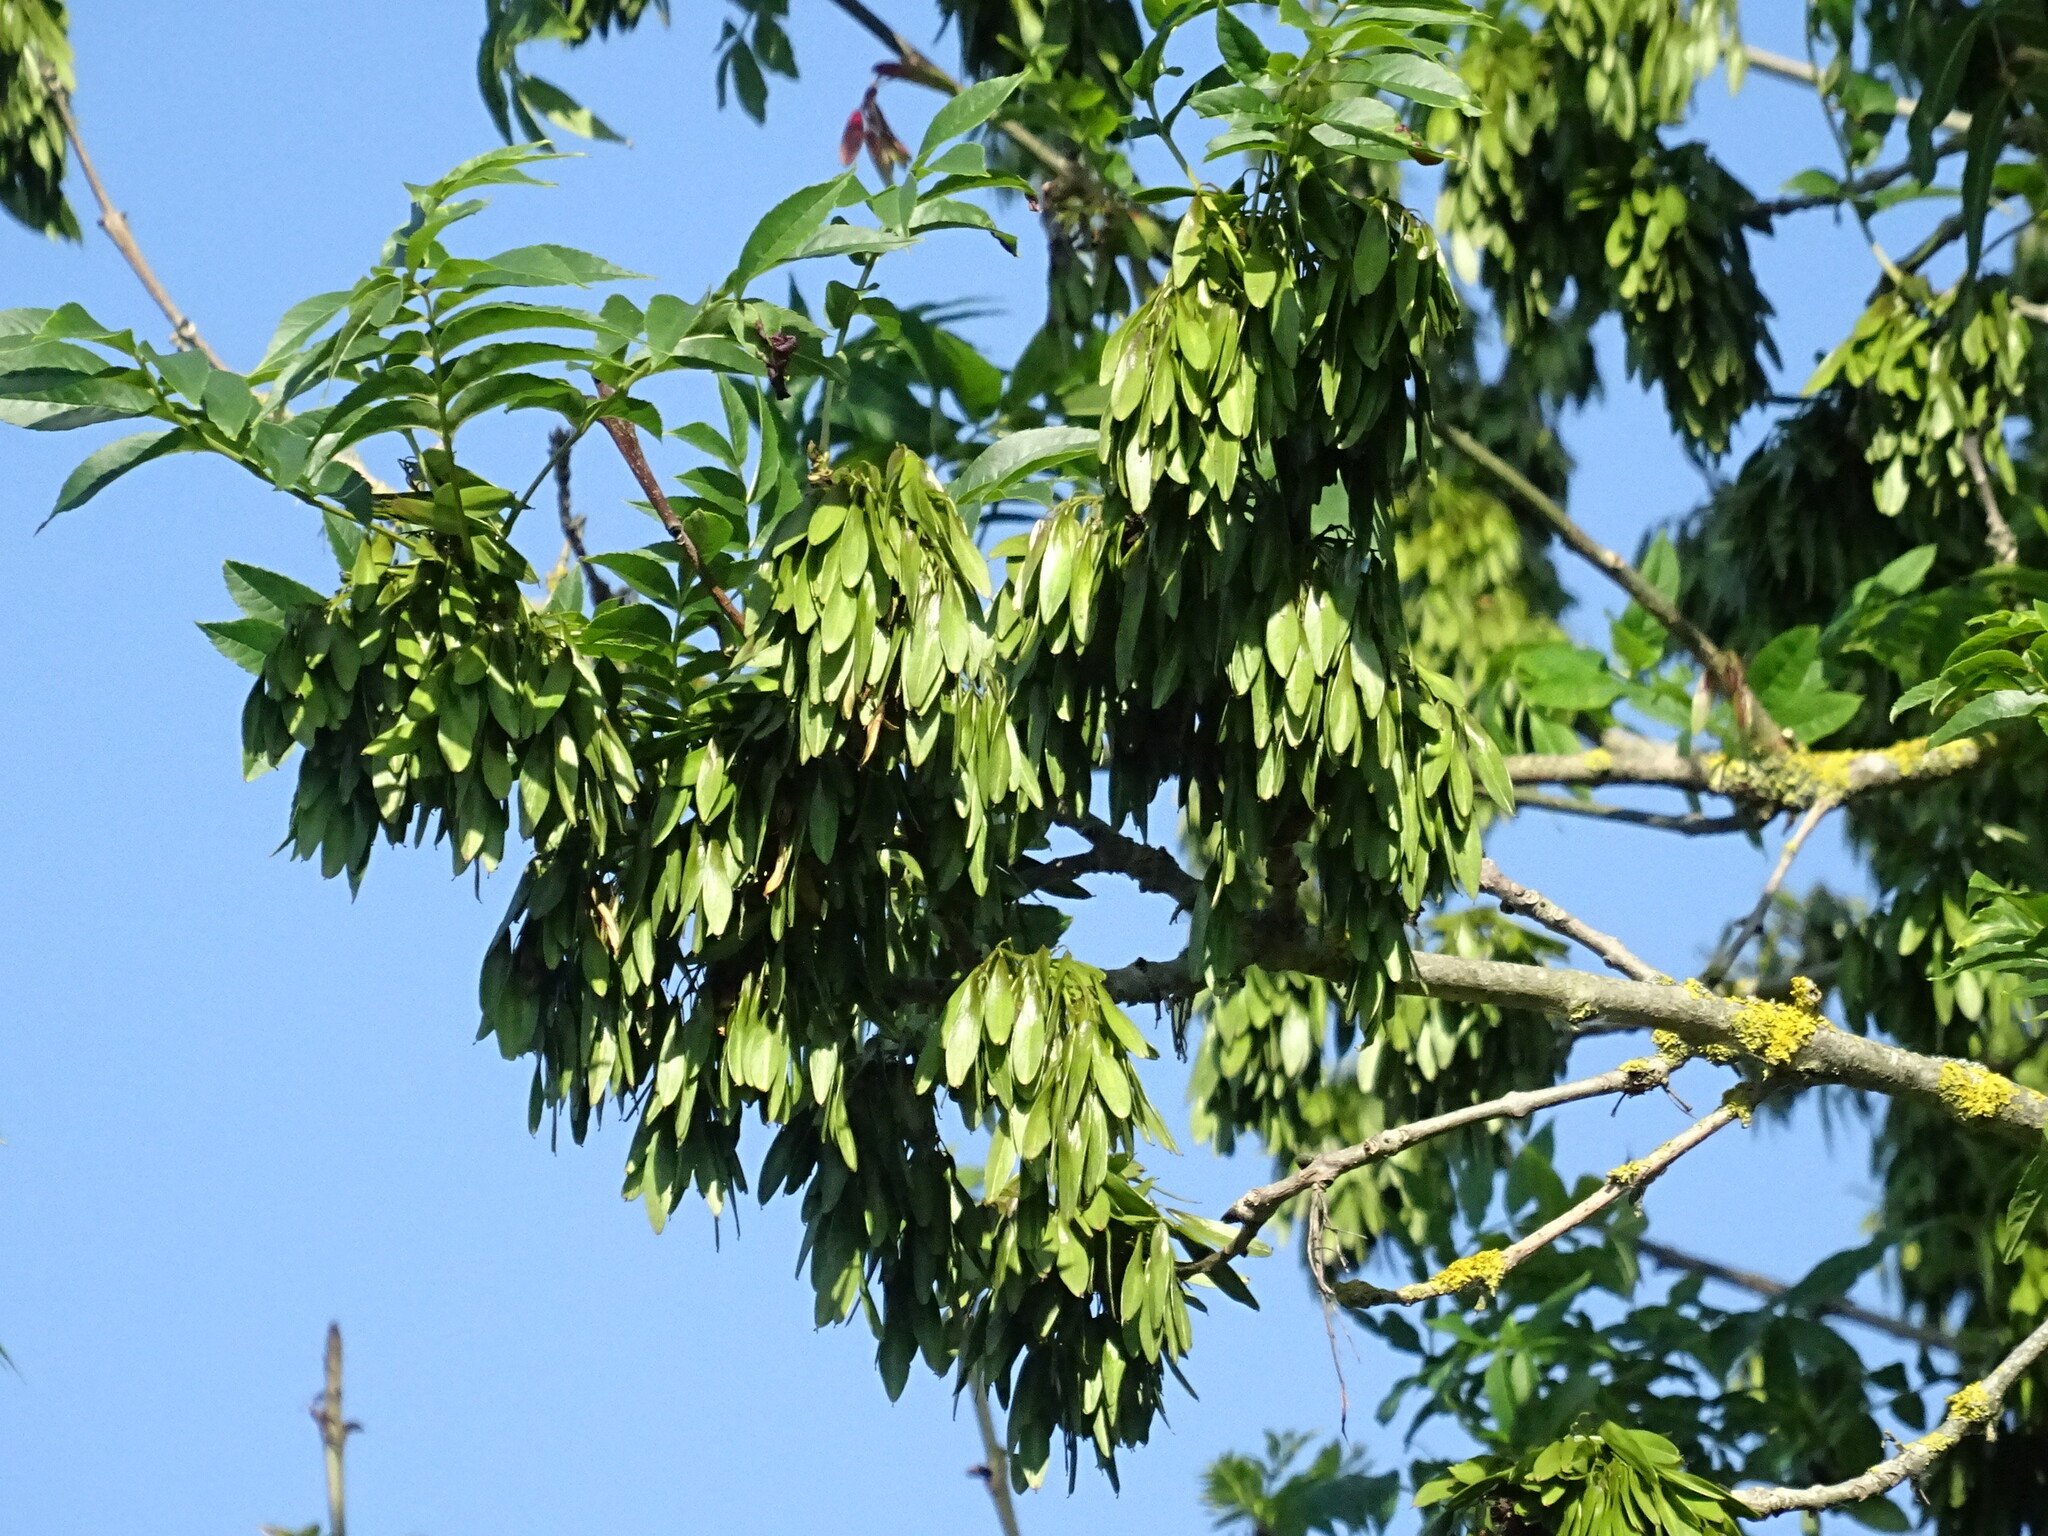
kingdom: Plantae
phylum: Tracheophyta
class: Magnoliopsida
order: Lamiales
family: Oleaceae
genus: Fraxinus
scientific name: Fraxinus excelsior
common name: European ash
